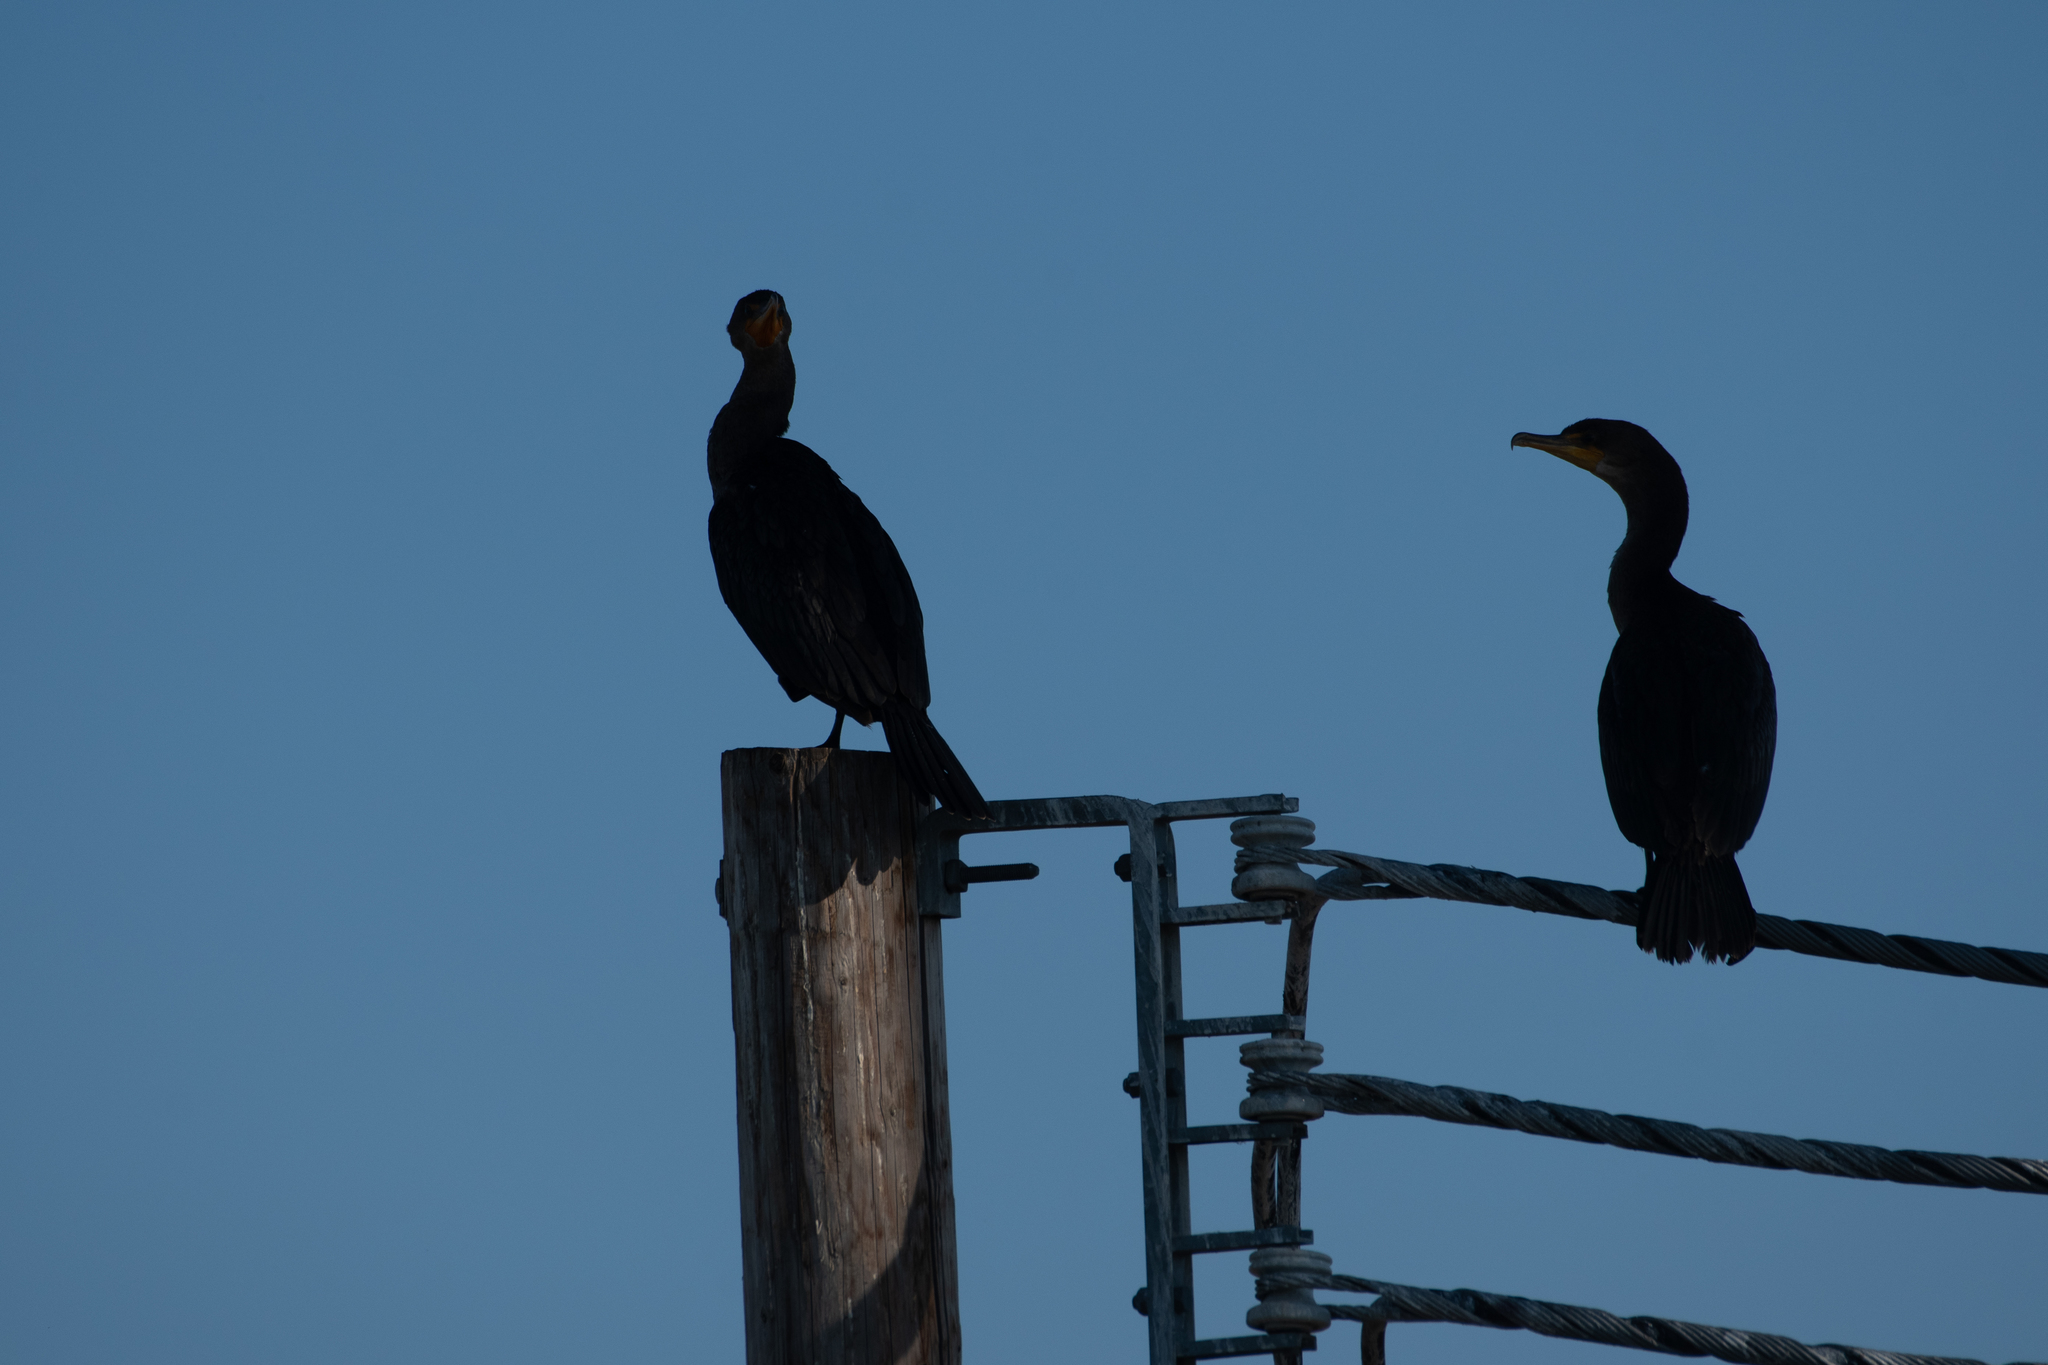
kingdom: Animalia
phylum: Chordata
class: Aves
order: Suliformes
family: Phalacrocoracidae
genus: Phalacrocorax
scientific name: Phalacrocorax auritus
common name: Double-crested cormorant
